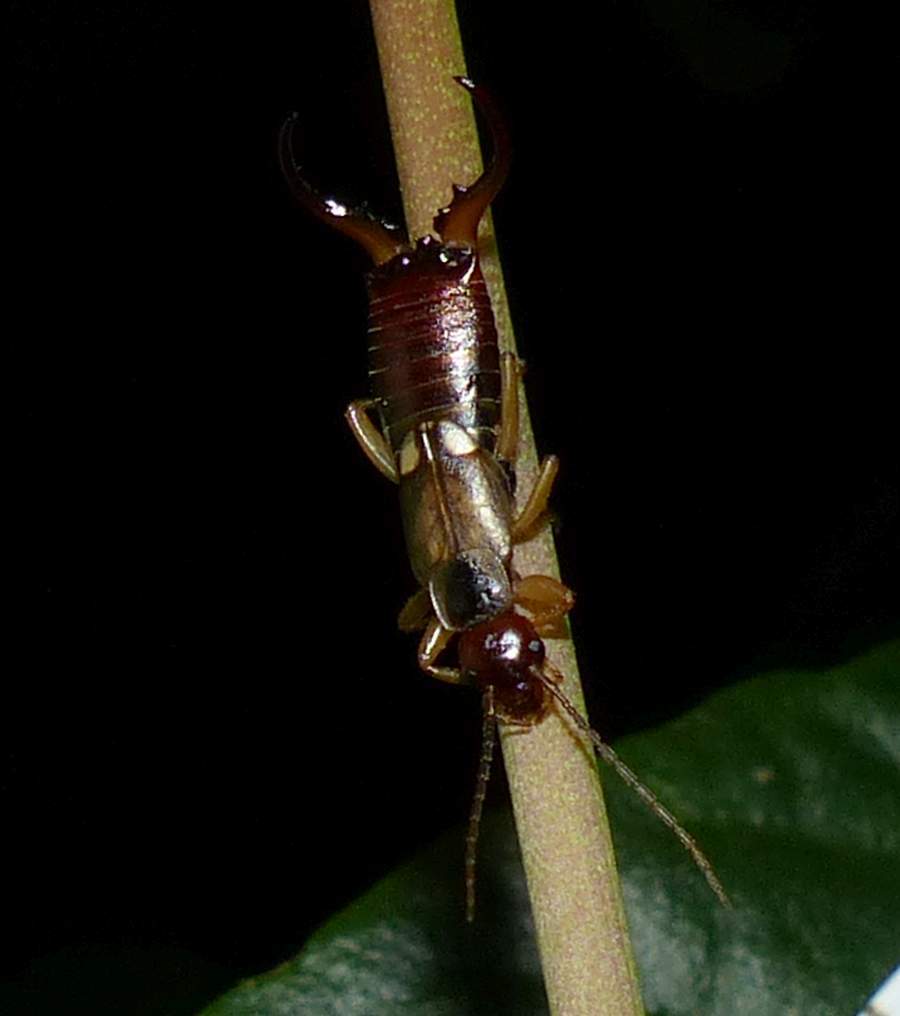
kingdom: Animalia
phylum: Arthropoda
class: Insecta
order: Dermaptera
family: Forficulidae
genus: Forficula
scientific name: Forficula
